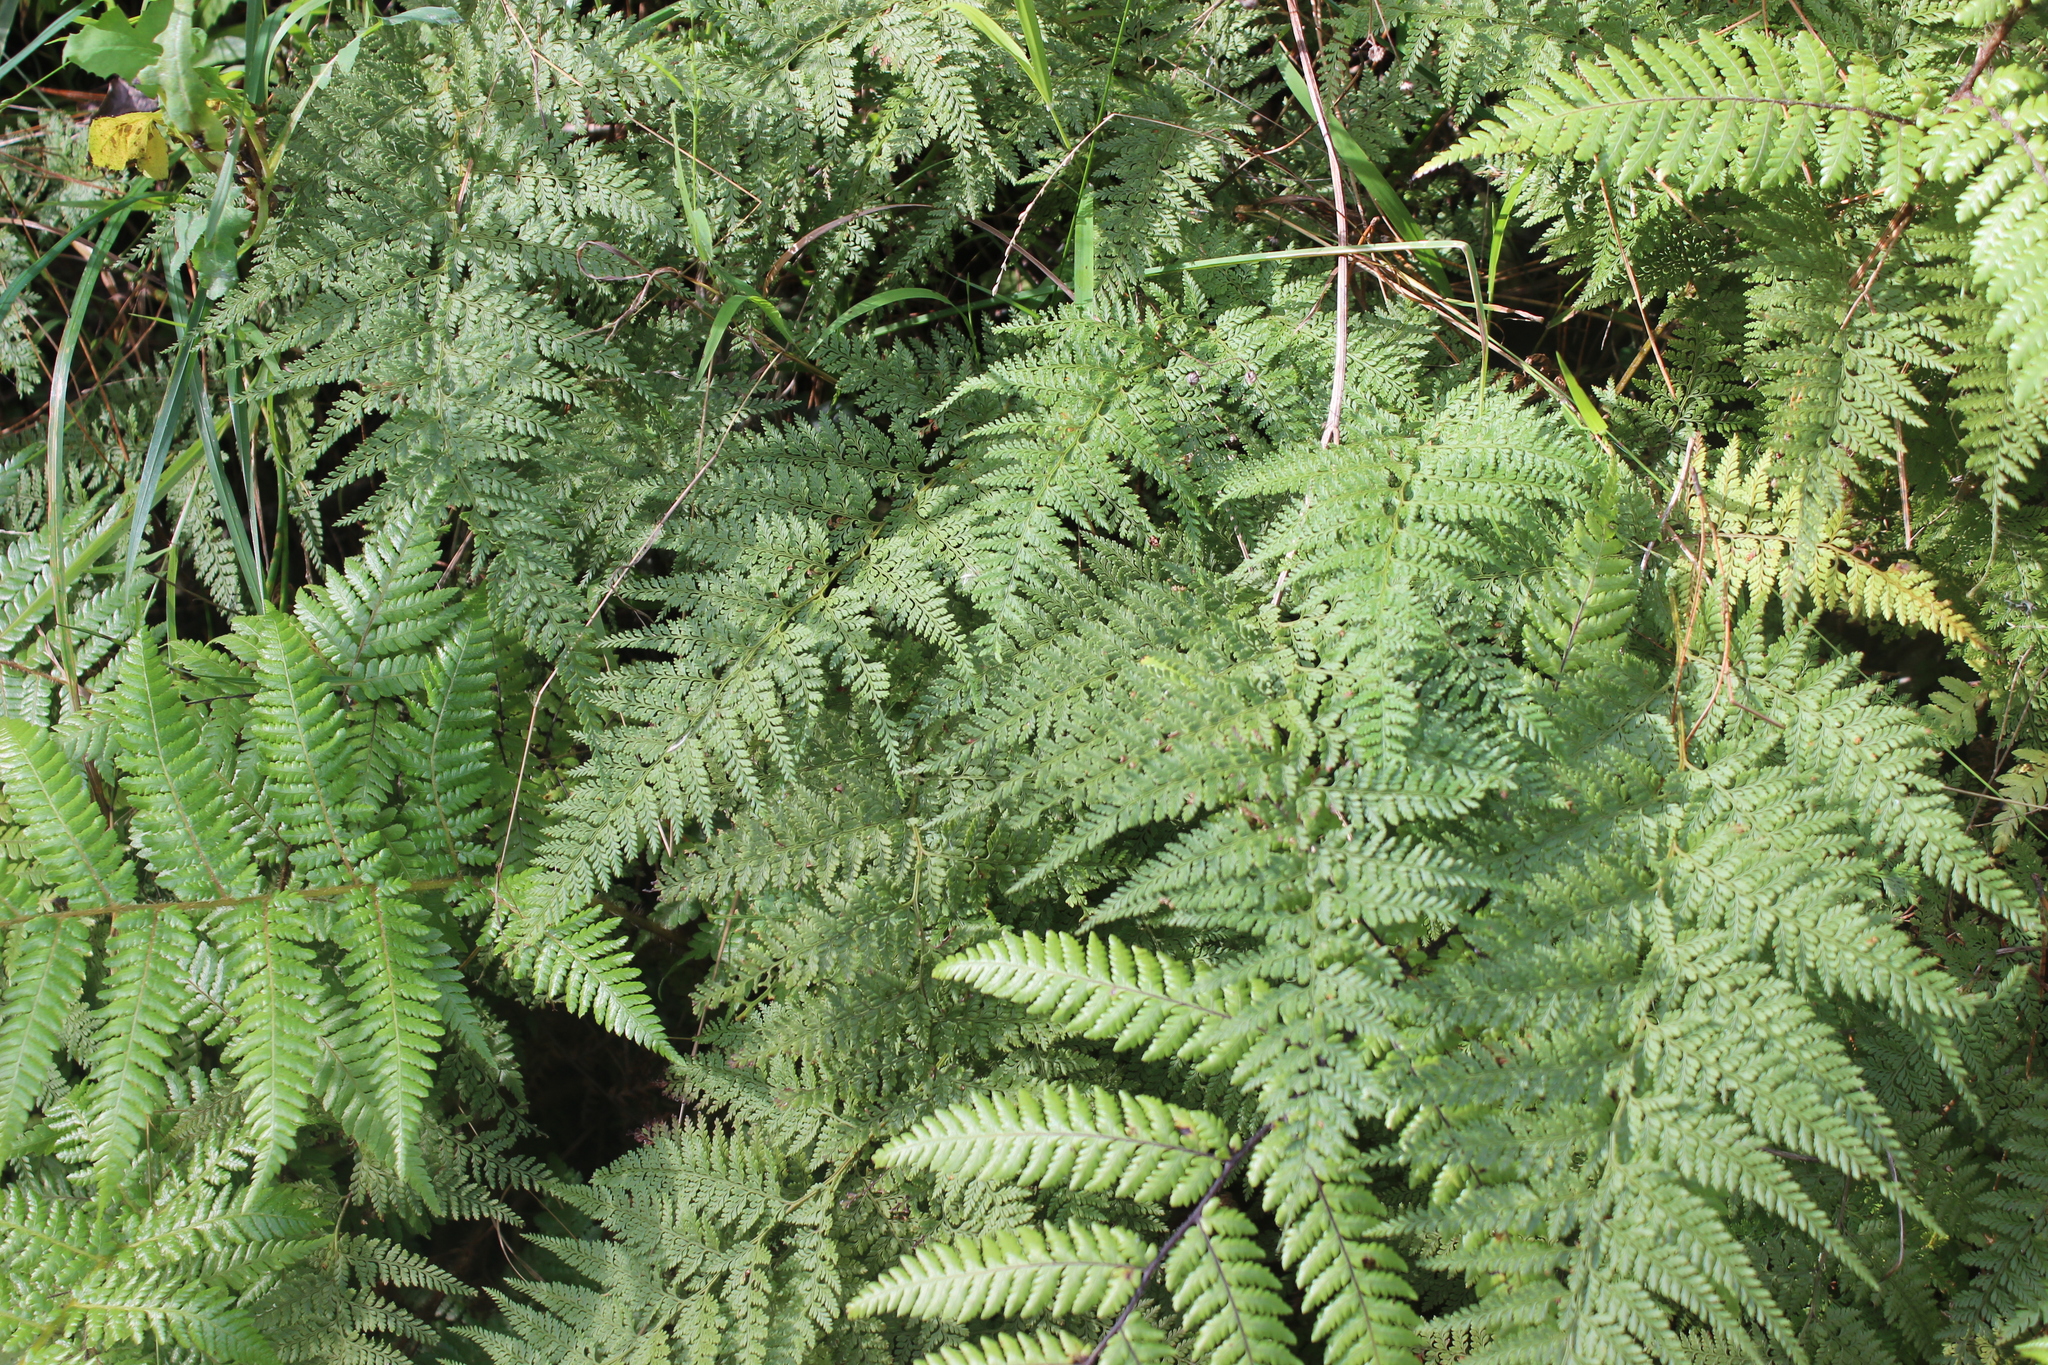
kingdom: Plantae
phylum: Tracheophyta
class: Polypodiopsida
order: Polypodiales
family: Dennstaedtiaceae
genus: Paesia
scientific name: Paesia scaberula
